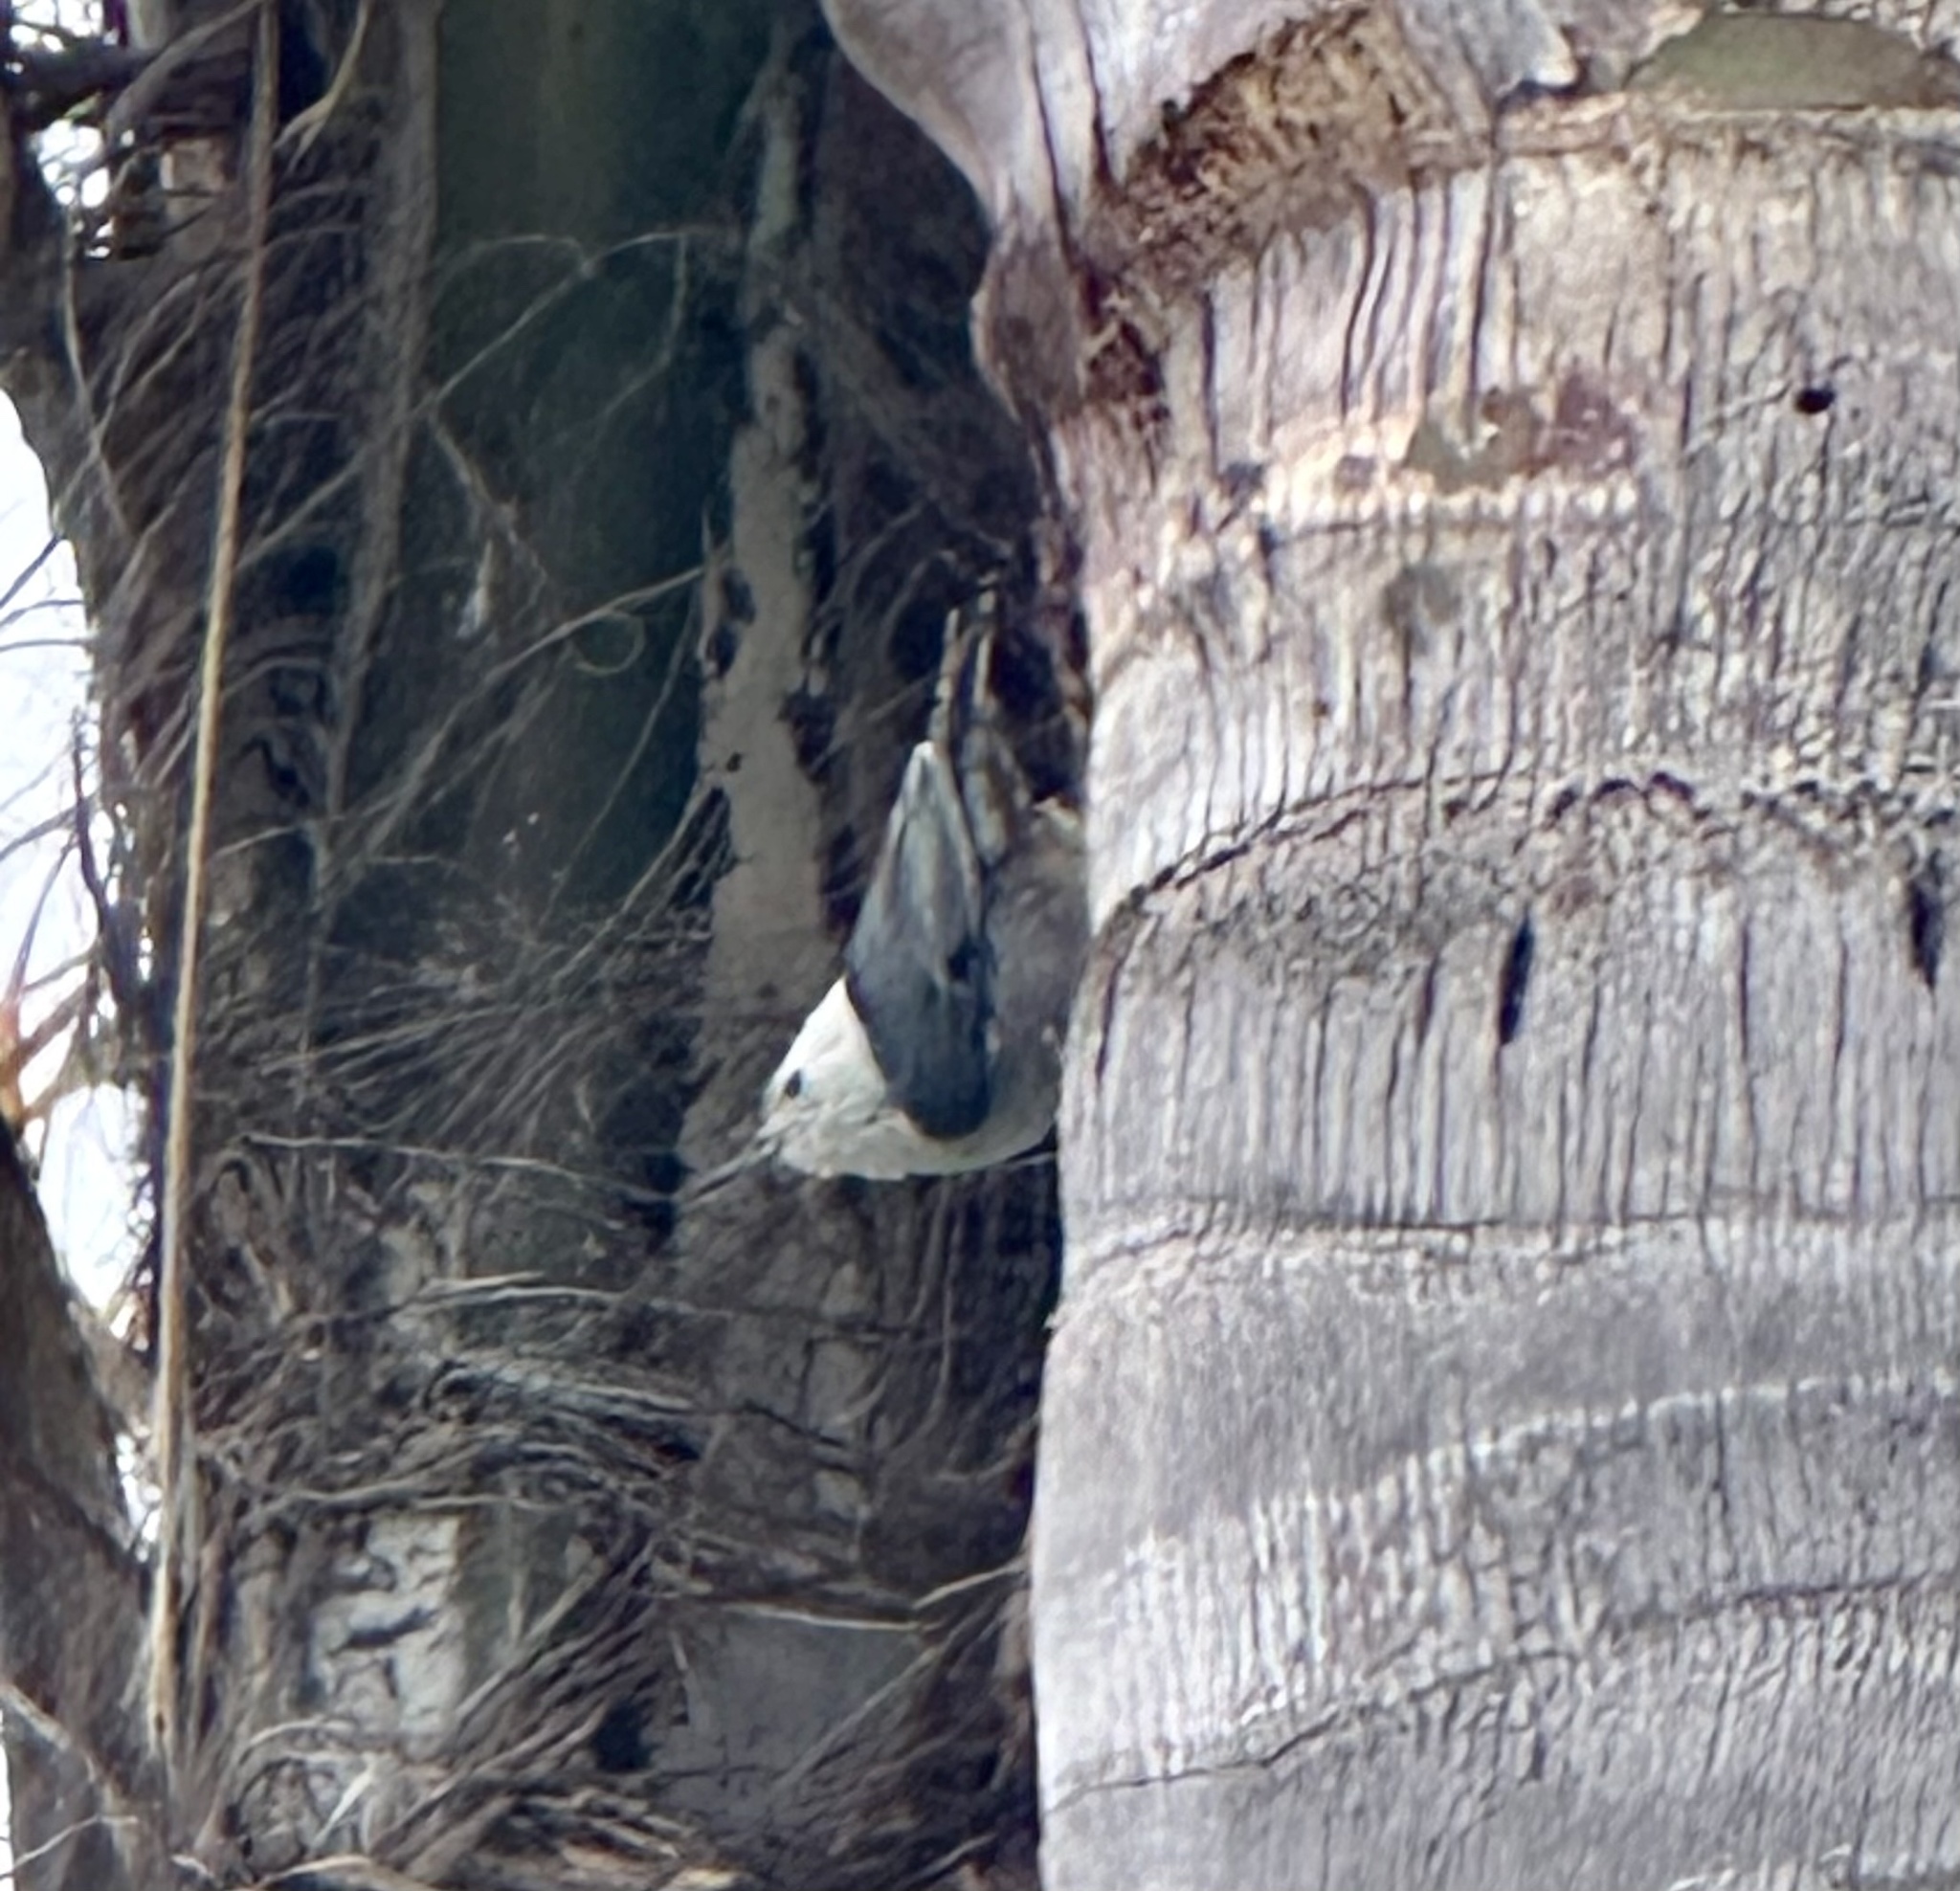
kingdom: Animalia
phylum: Chordata
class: Aves
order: Passeriformes
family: Sittidae
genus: Sitta
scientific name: Sitta carolinensis
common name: White-breasted nuthatch
